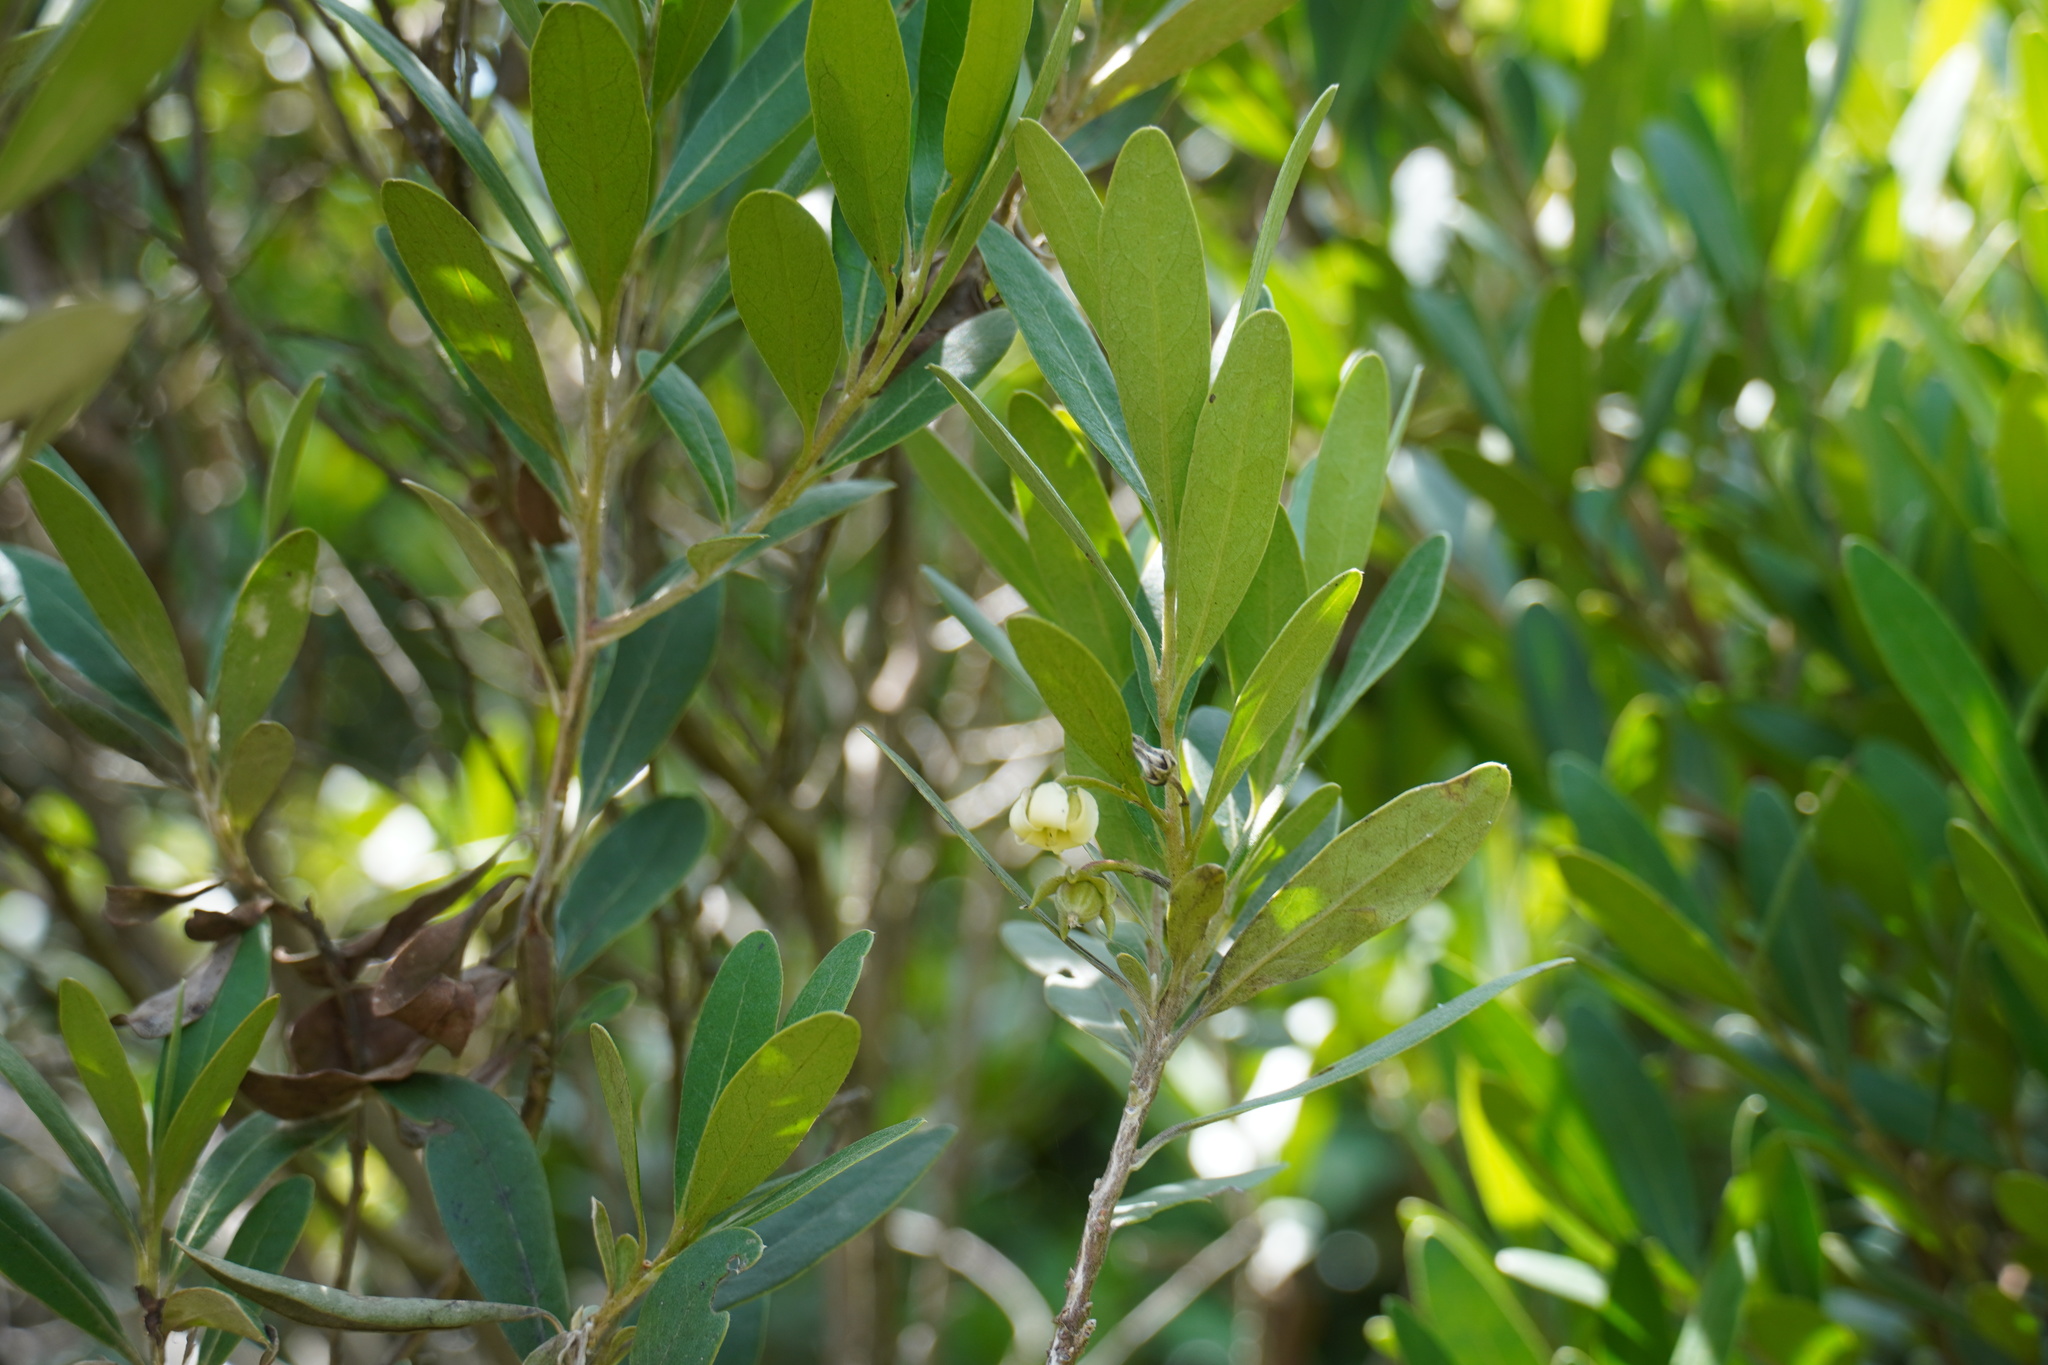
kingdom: Plantae
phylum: Tracheophyta
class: Magnoliopsida
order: Ericales
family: Ebenaceae
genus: Diospyros
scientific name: Diospyros dichrophylla
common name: Common star-apple
